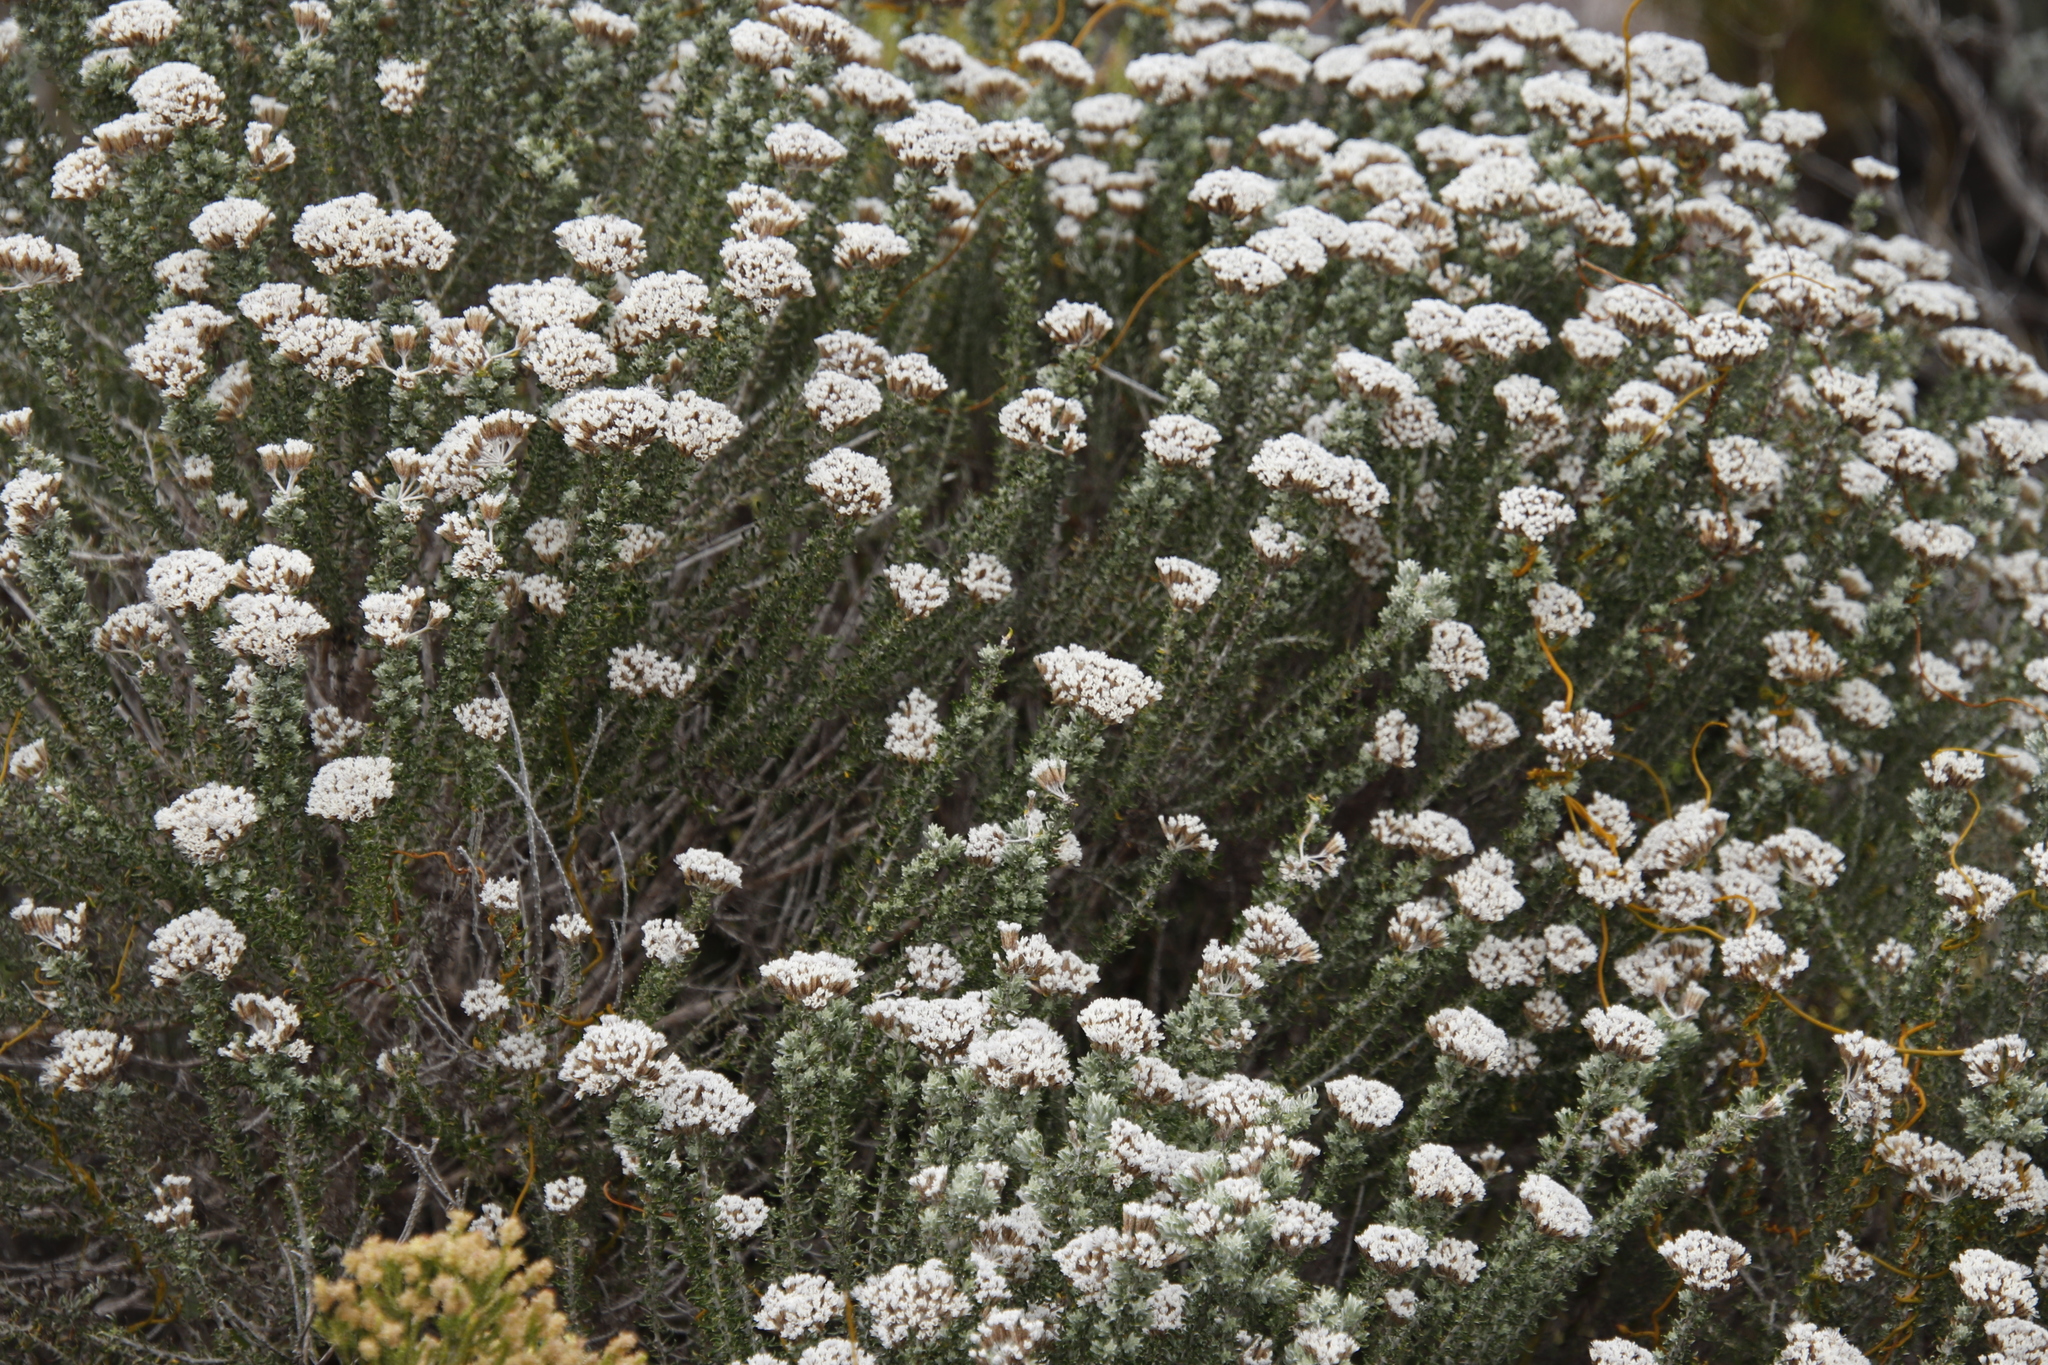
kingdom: Plantae
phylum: Tracheophyta
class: Magnoliopsida
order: Asterales
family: Asteraceae
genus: Metalasia
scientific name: Metalasia muricata
